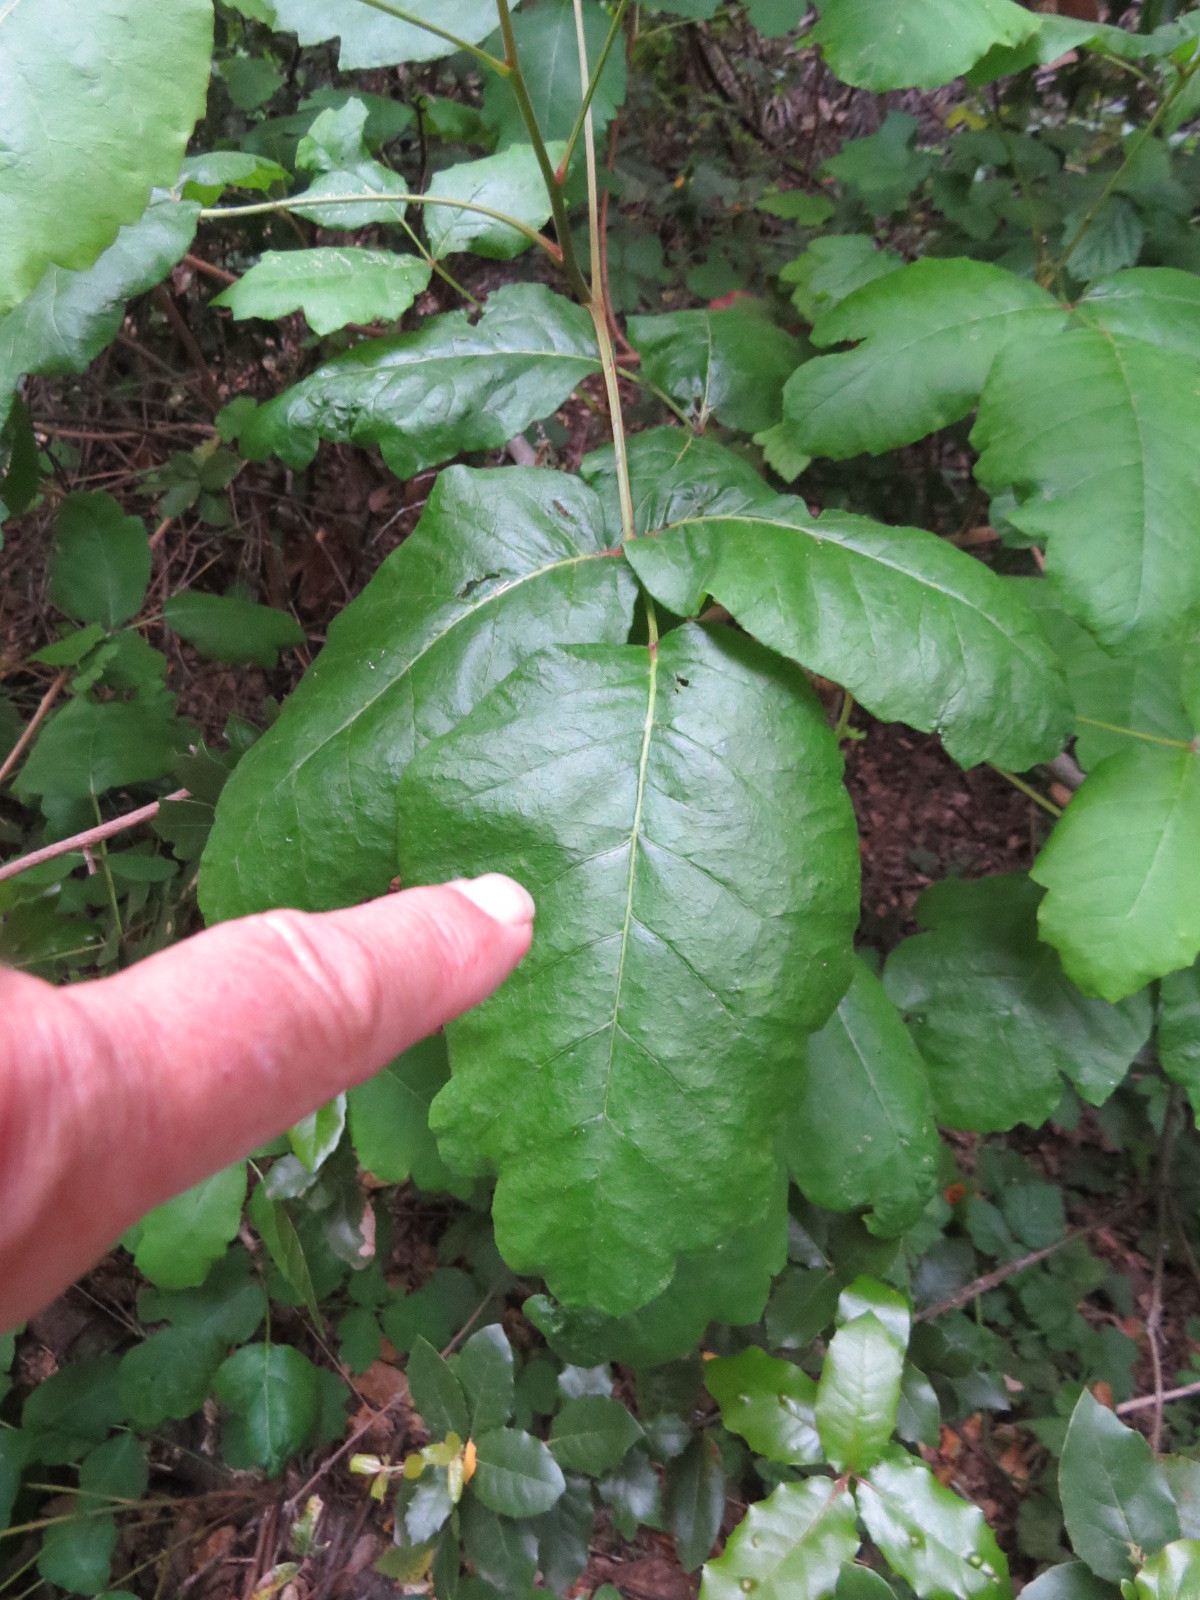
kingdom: Plantae
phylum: Tracheophyta
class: Magnoliopsida
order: Sapindales
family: Anacardiaceae
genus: Toxicodendron
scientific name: Toxicodendron diversilobum
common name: Pacific poison-oak
